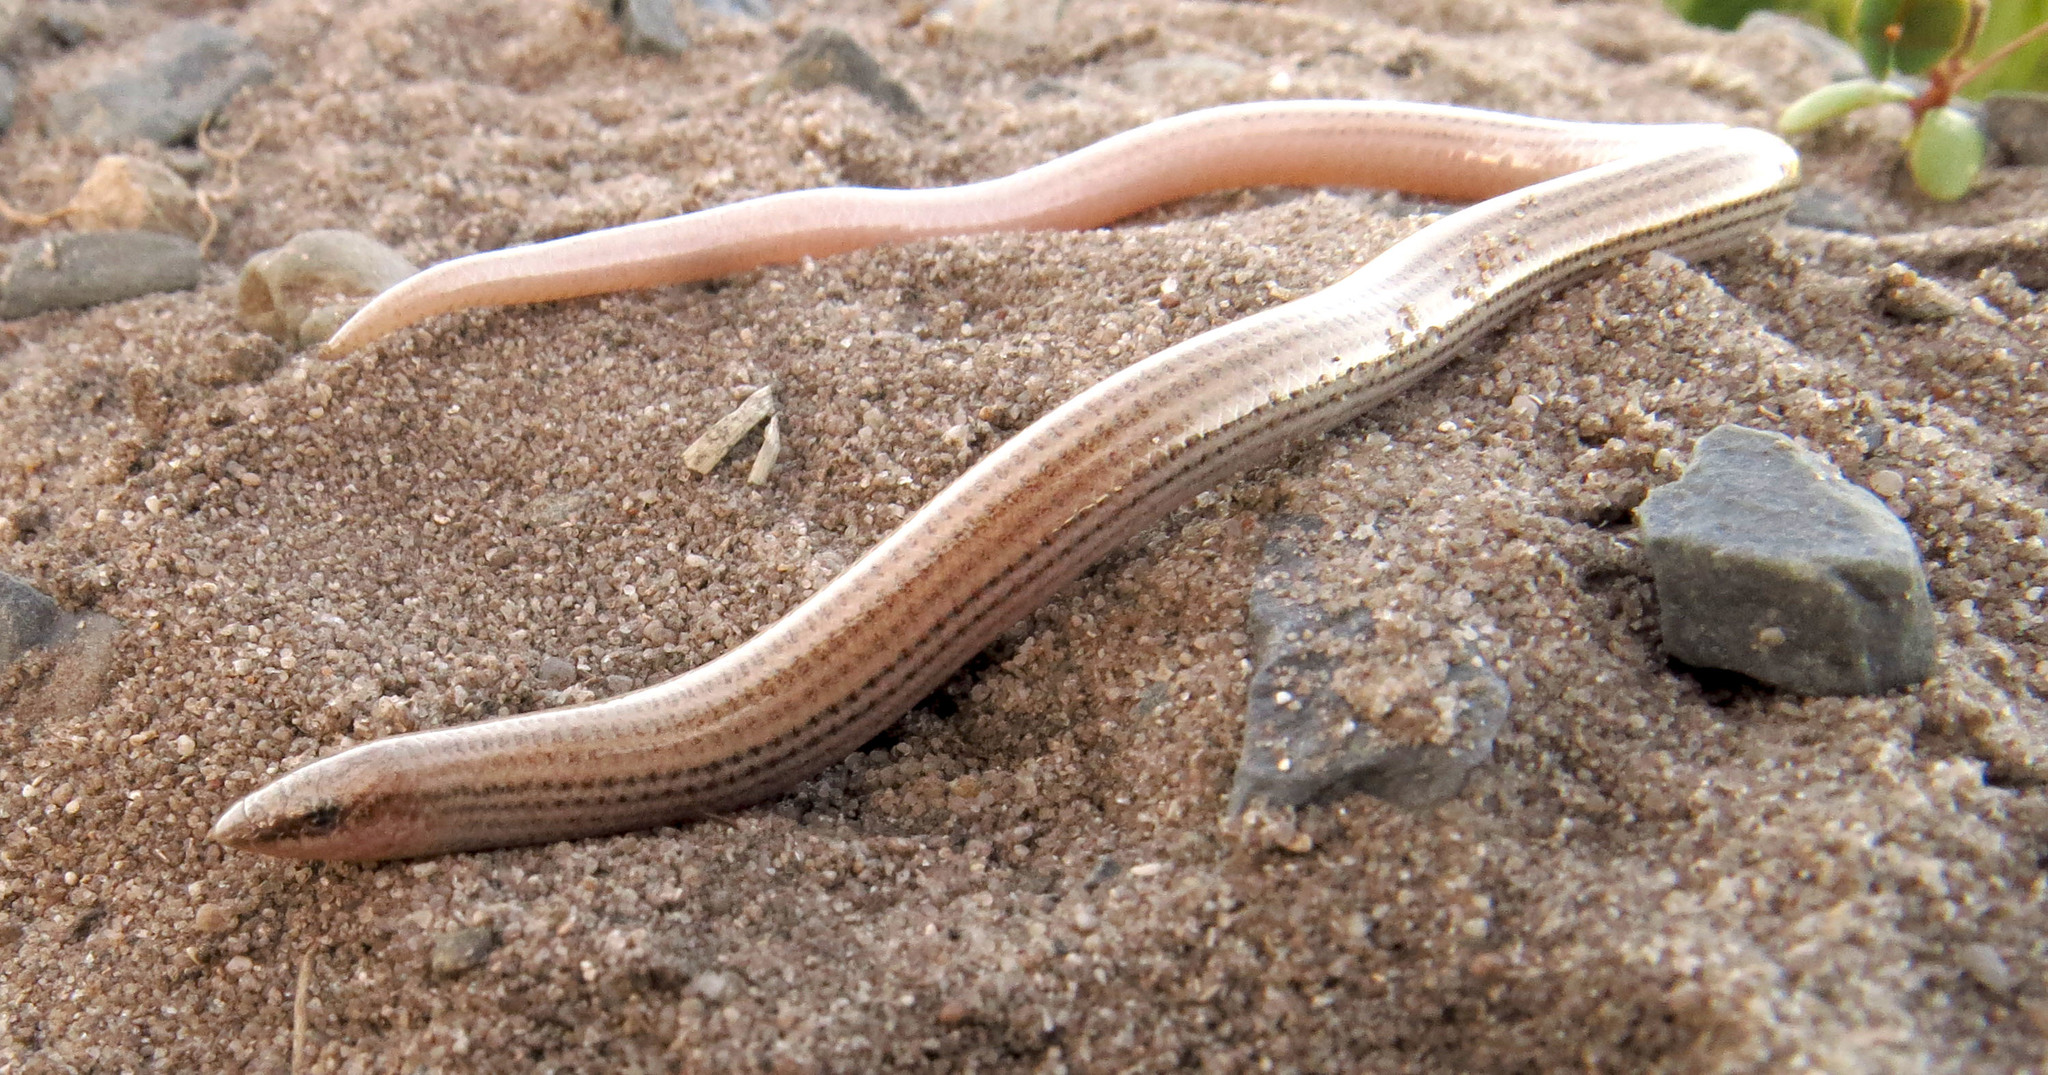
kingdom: Animalia
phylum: Chordata
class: Squamata
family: Scincidae
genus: Scelotes
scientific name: Scelotes bipes
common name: Common burrowing skink
